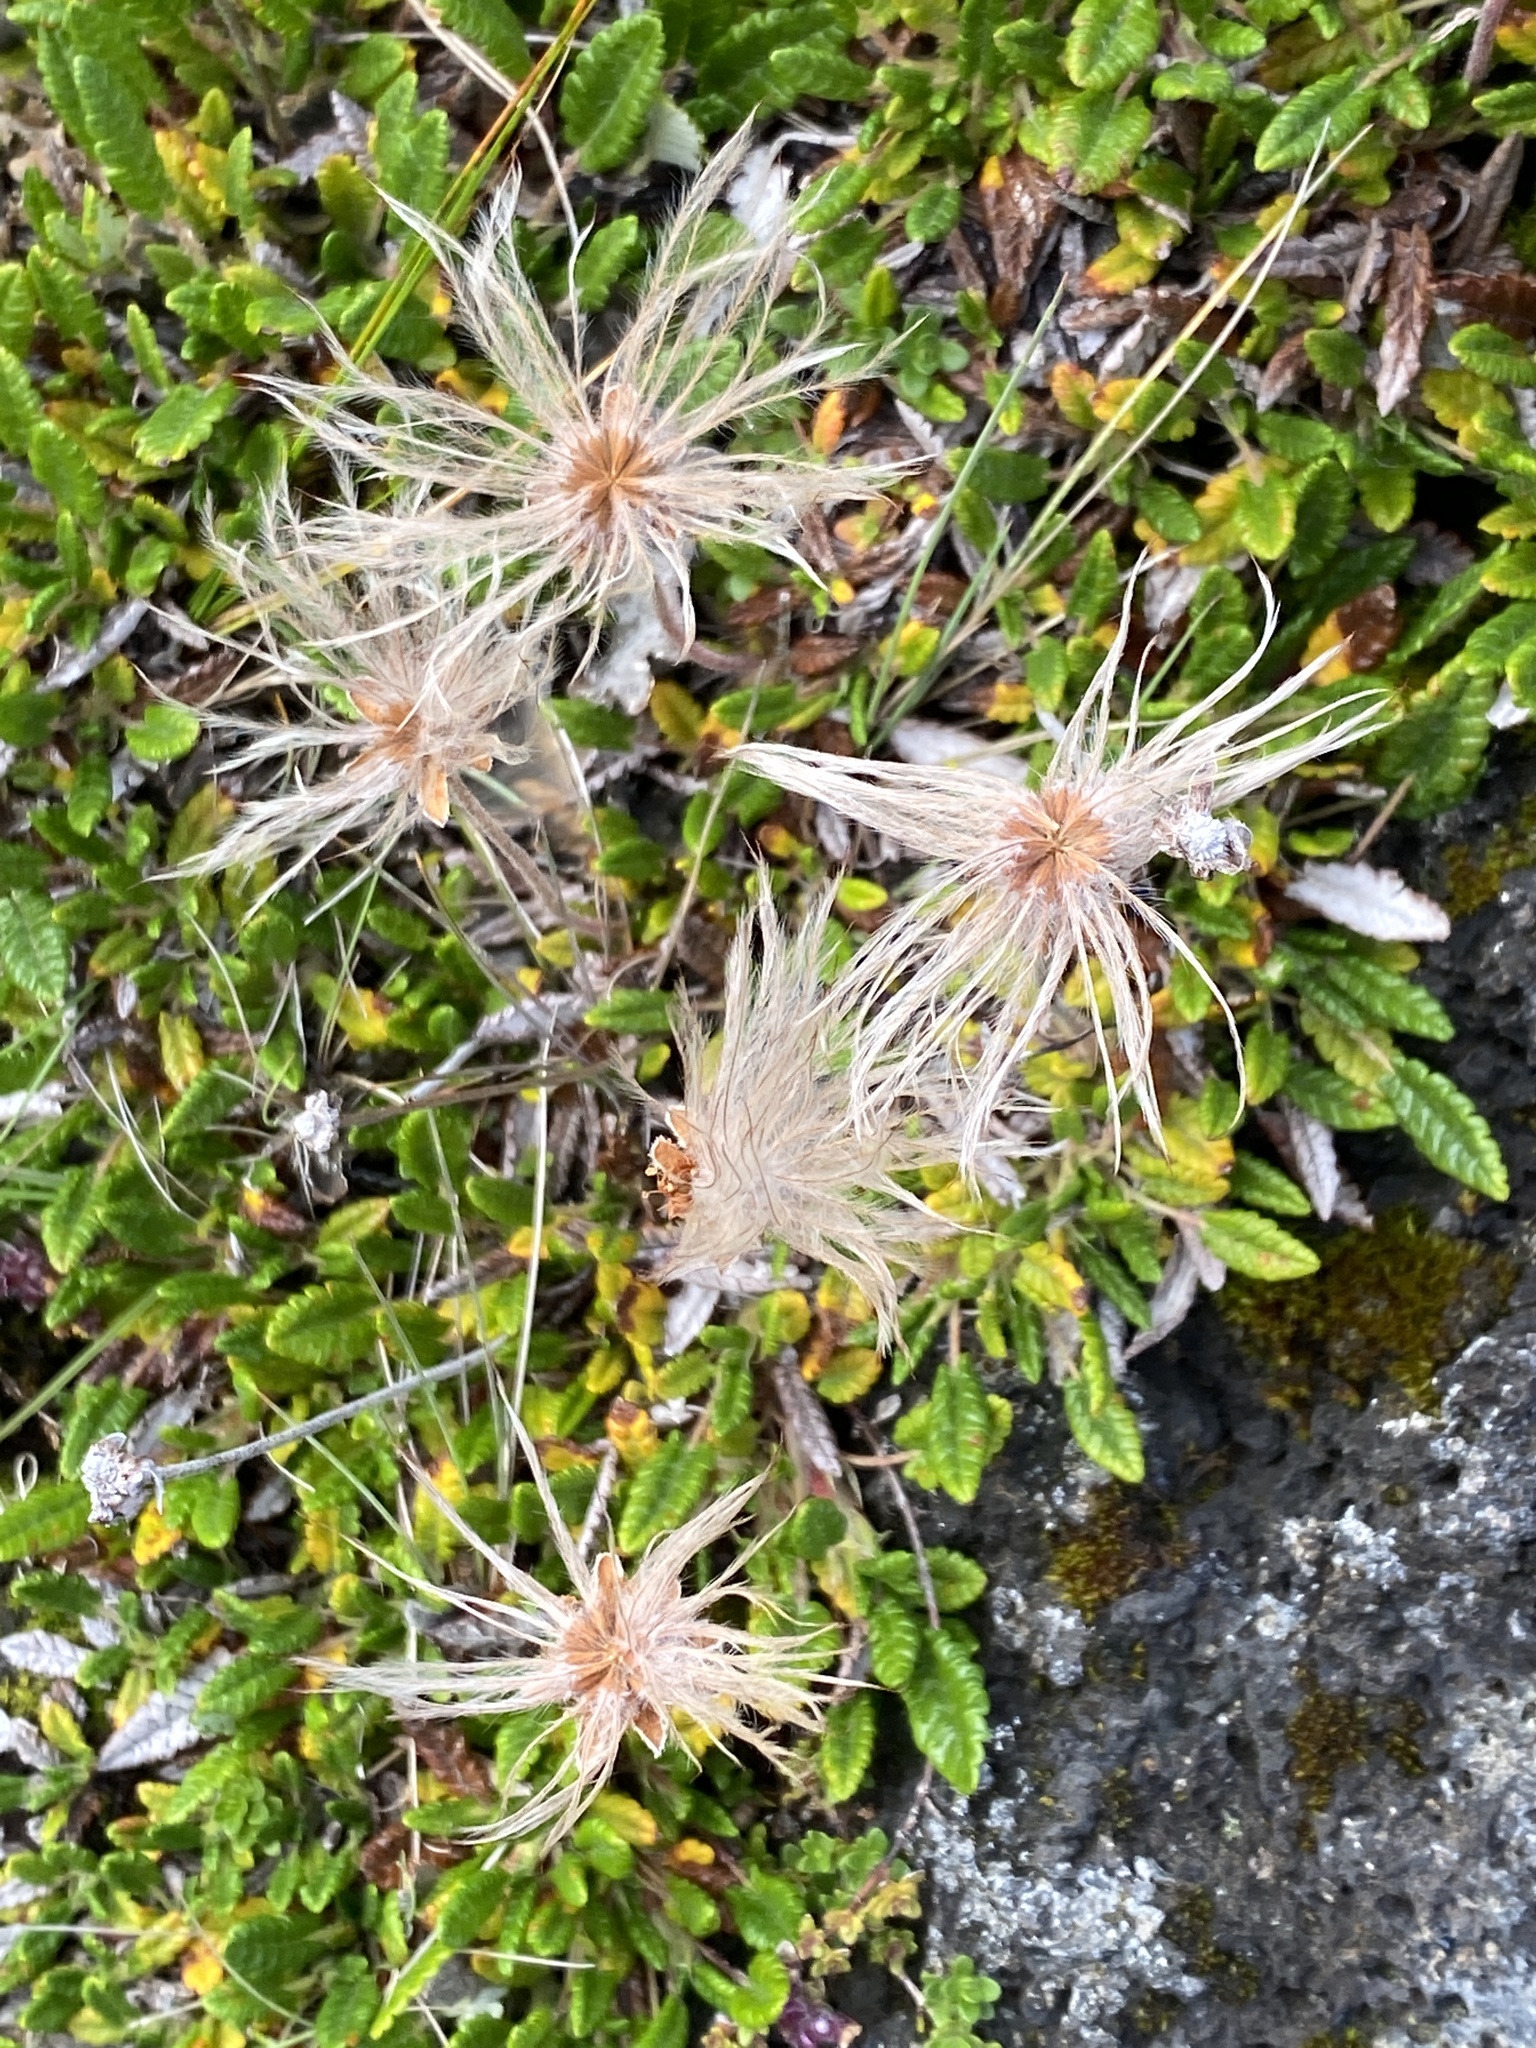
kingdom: Plantae
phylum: Tracheophyta
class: Magnoliopsida
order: Rosales
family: Rosaceae
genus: Dryas
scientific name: Dryas octopetala
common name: Eight-petal mountain-avens
